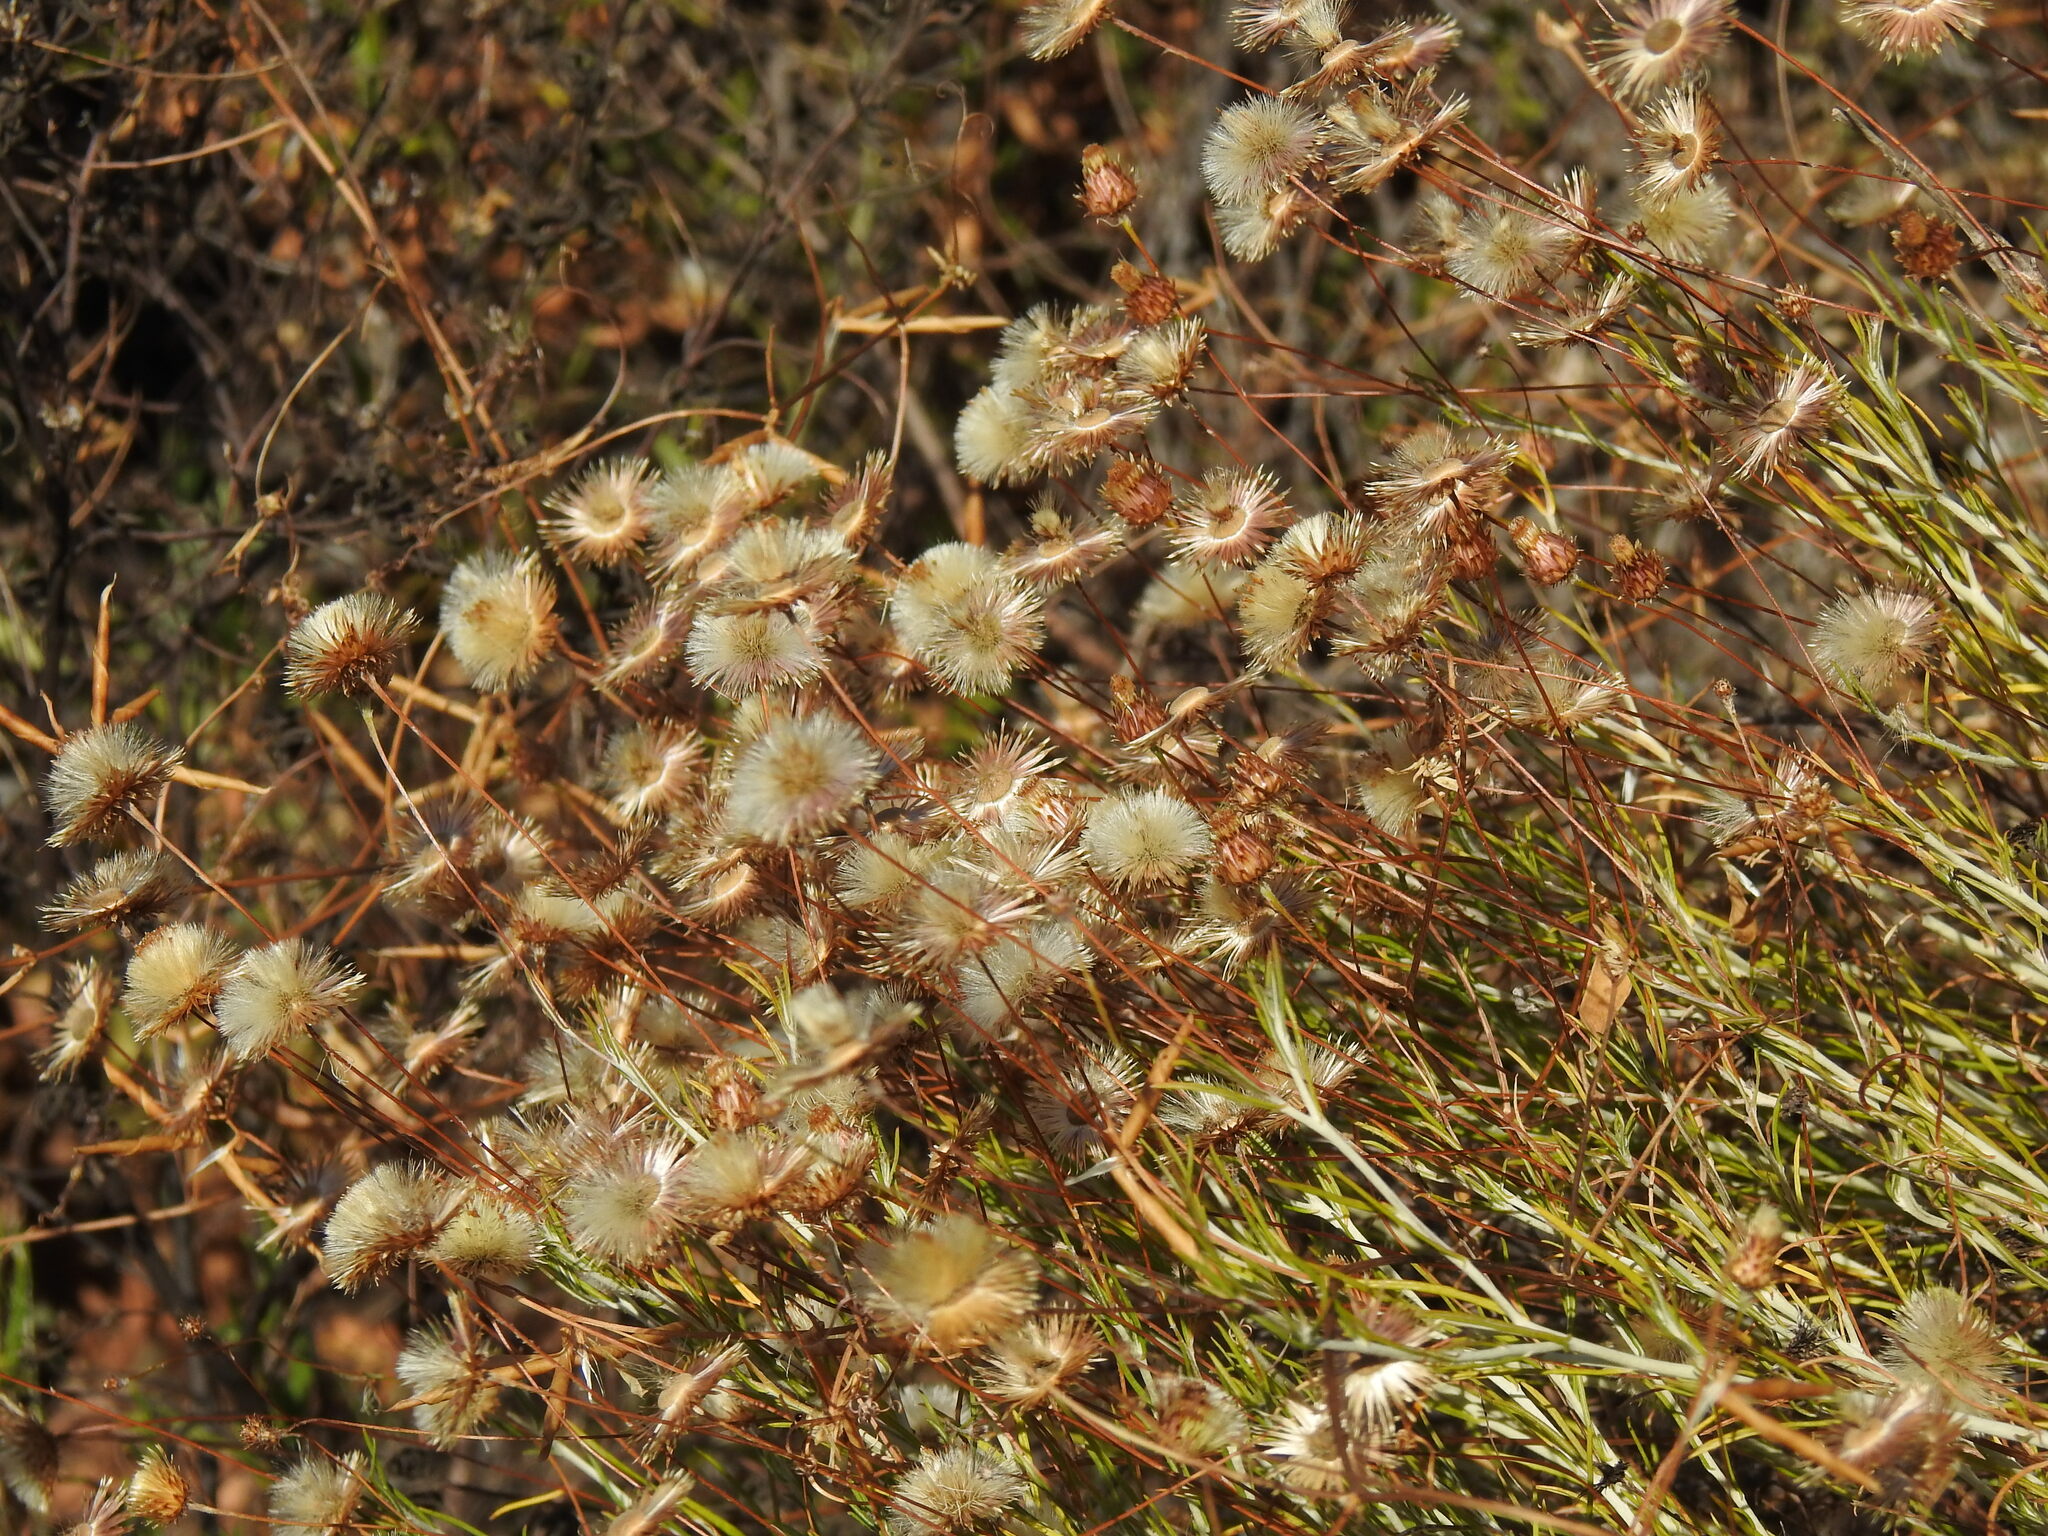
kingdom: Plantae
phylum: Tracheophyta
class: Magnoliopsida
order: Asterales
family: Asteraceae
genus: Phagnalon
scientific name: Phagnalon saxatile
